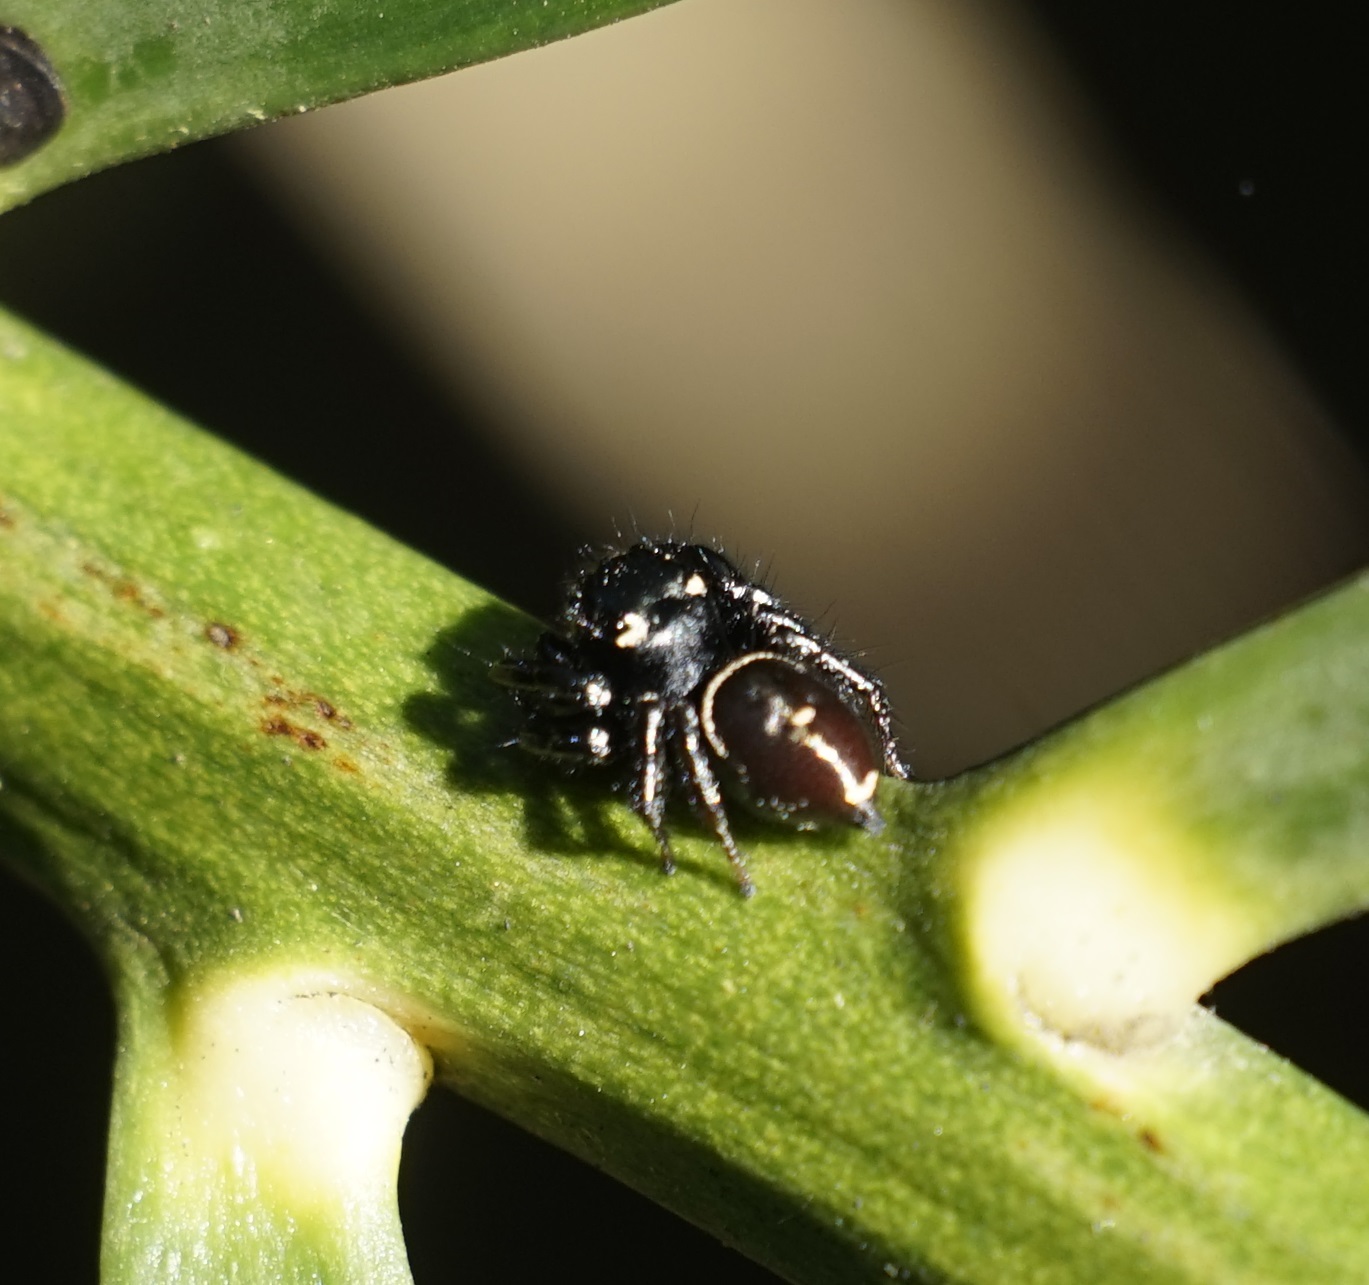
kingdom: Animalia
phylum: Arthropoda
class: Arachnida
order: Araneae
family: Salticidae
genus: Zenodorus
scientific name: Zenodorus orbiculatus
